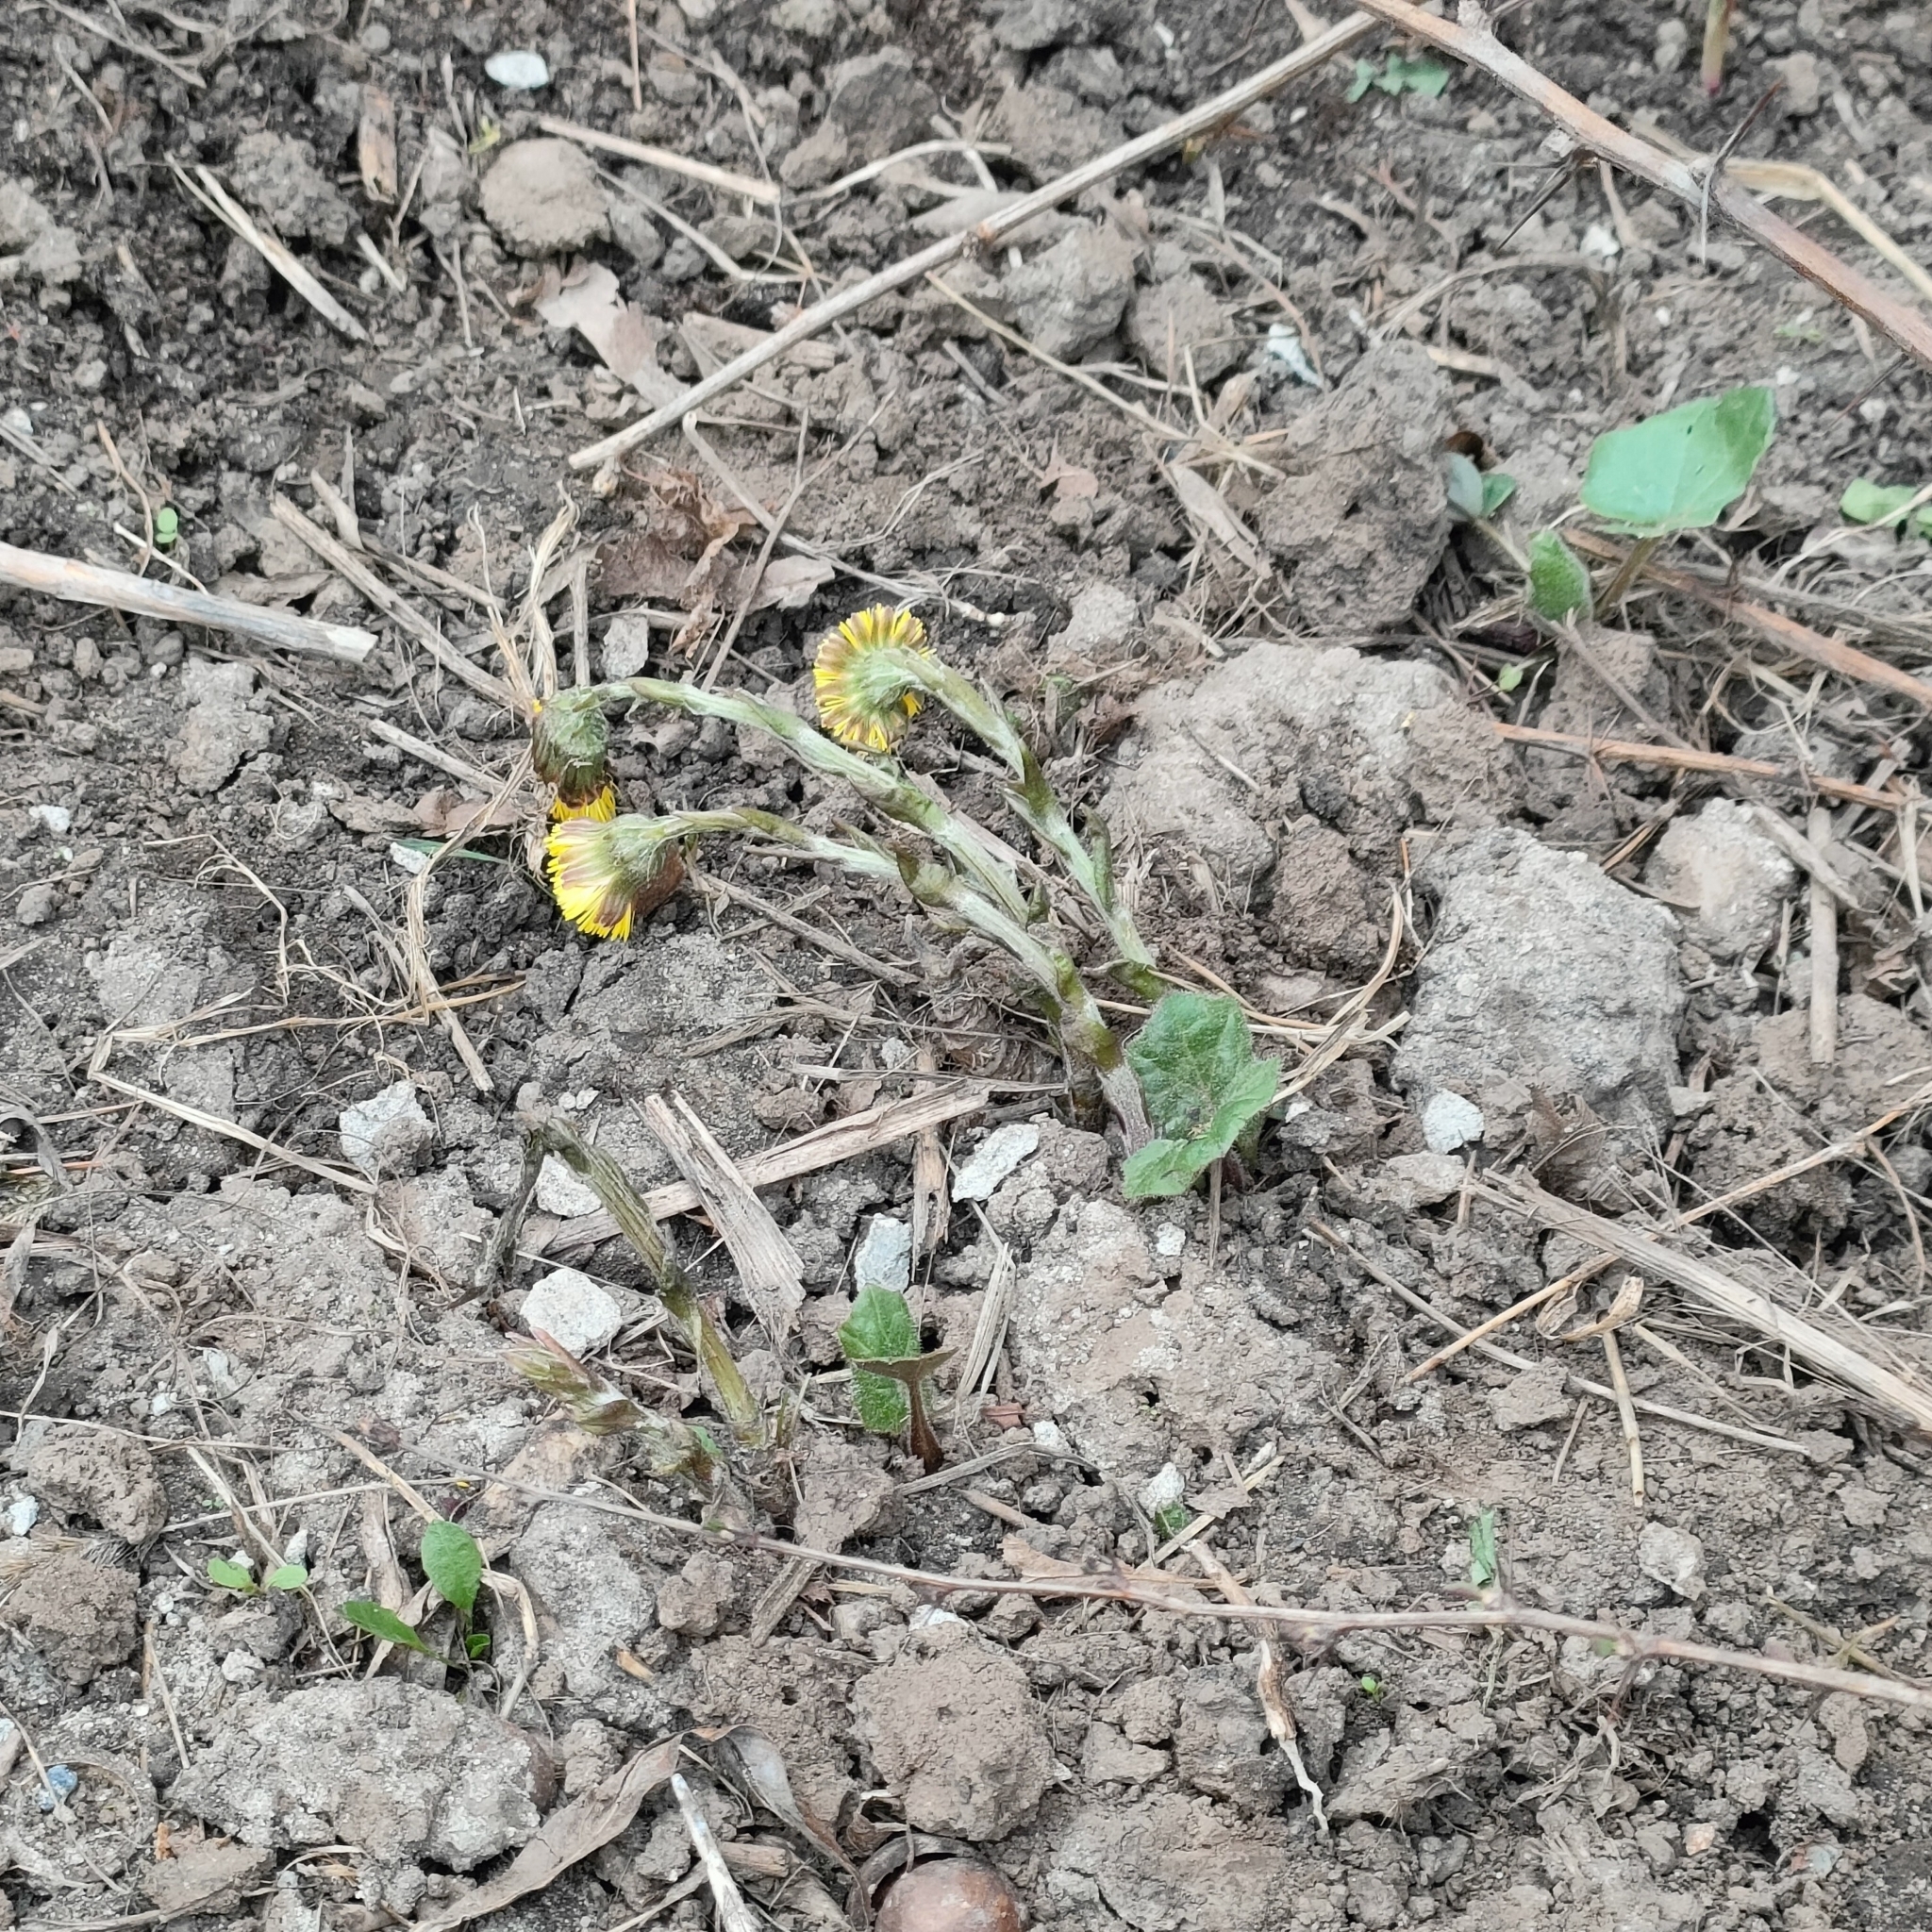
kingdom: Plantae
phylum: Tracheophyta
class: Magnoliopsida
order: Asterales
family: Asteraceae
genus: Tussilago
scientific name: Tussilago farfara
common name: Coltsfoot
